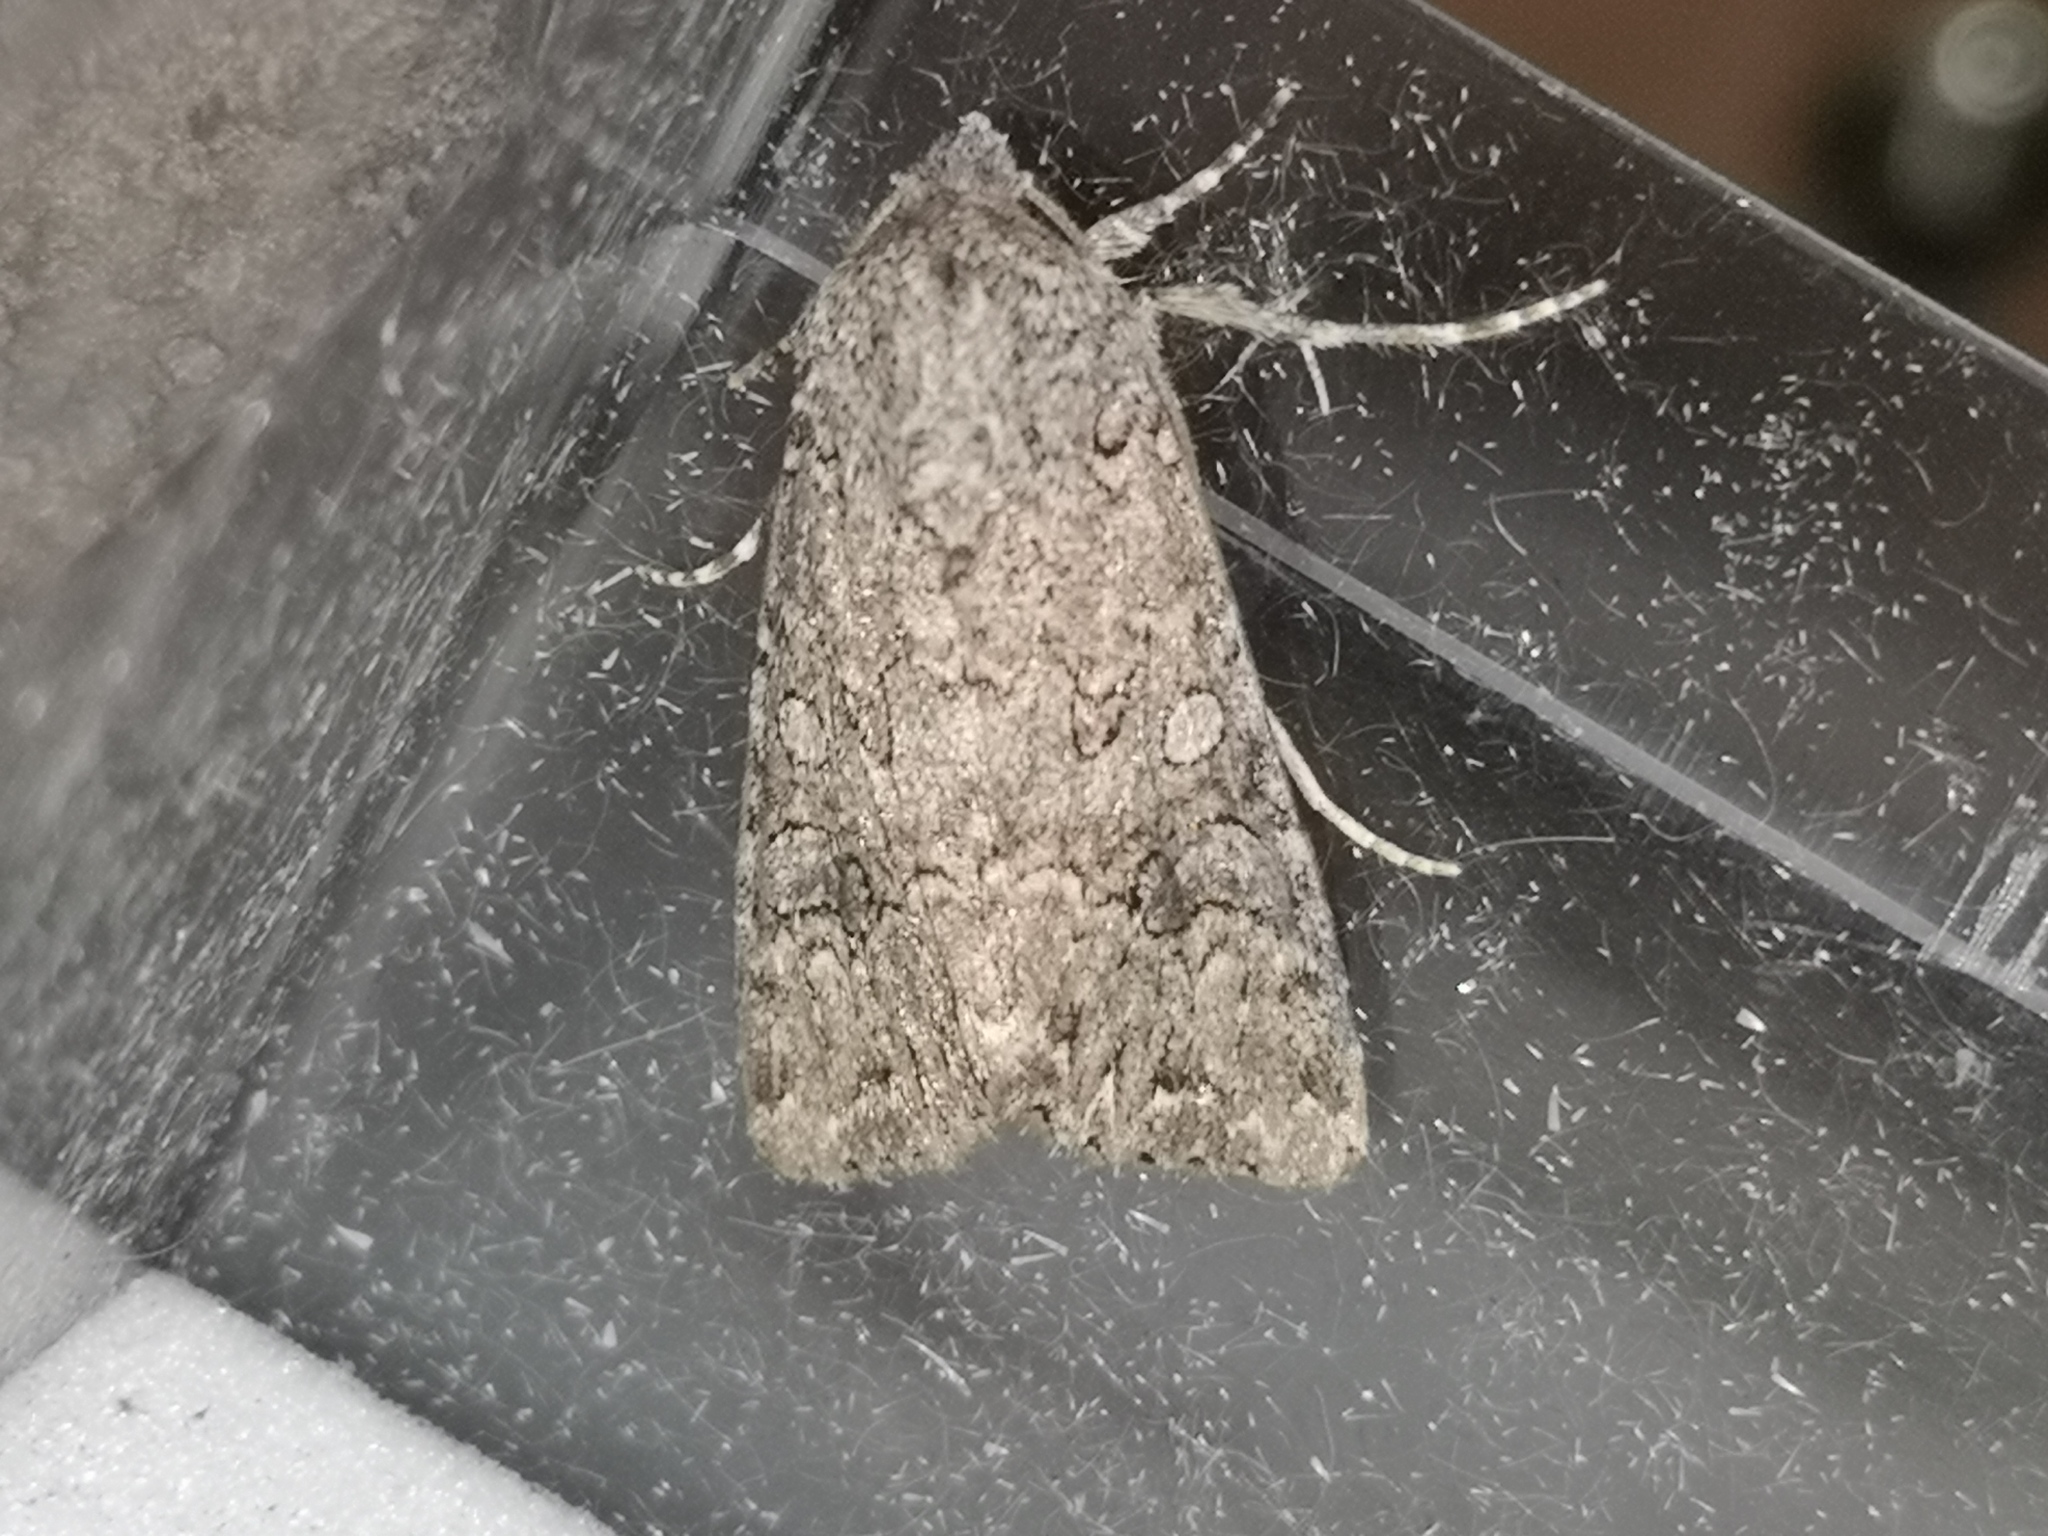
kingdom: Animalia
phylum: Arthropoda
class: Insecta
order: Lepidoptera
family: Noctuidae
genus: Anarta
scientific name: Anarta trifolii
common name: Clover cutworm moth
